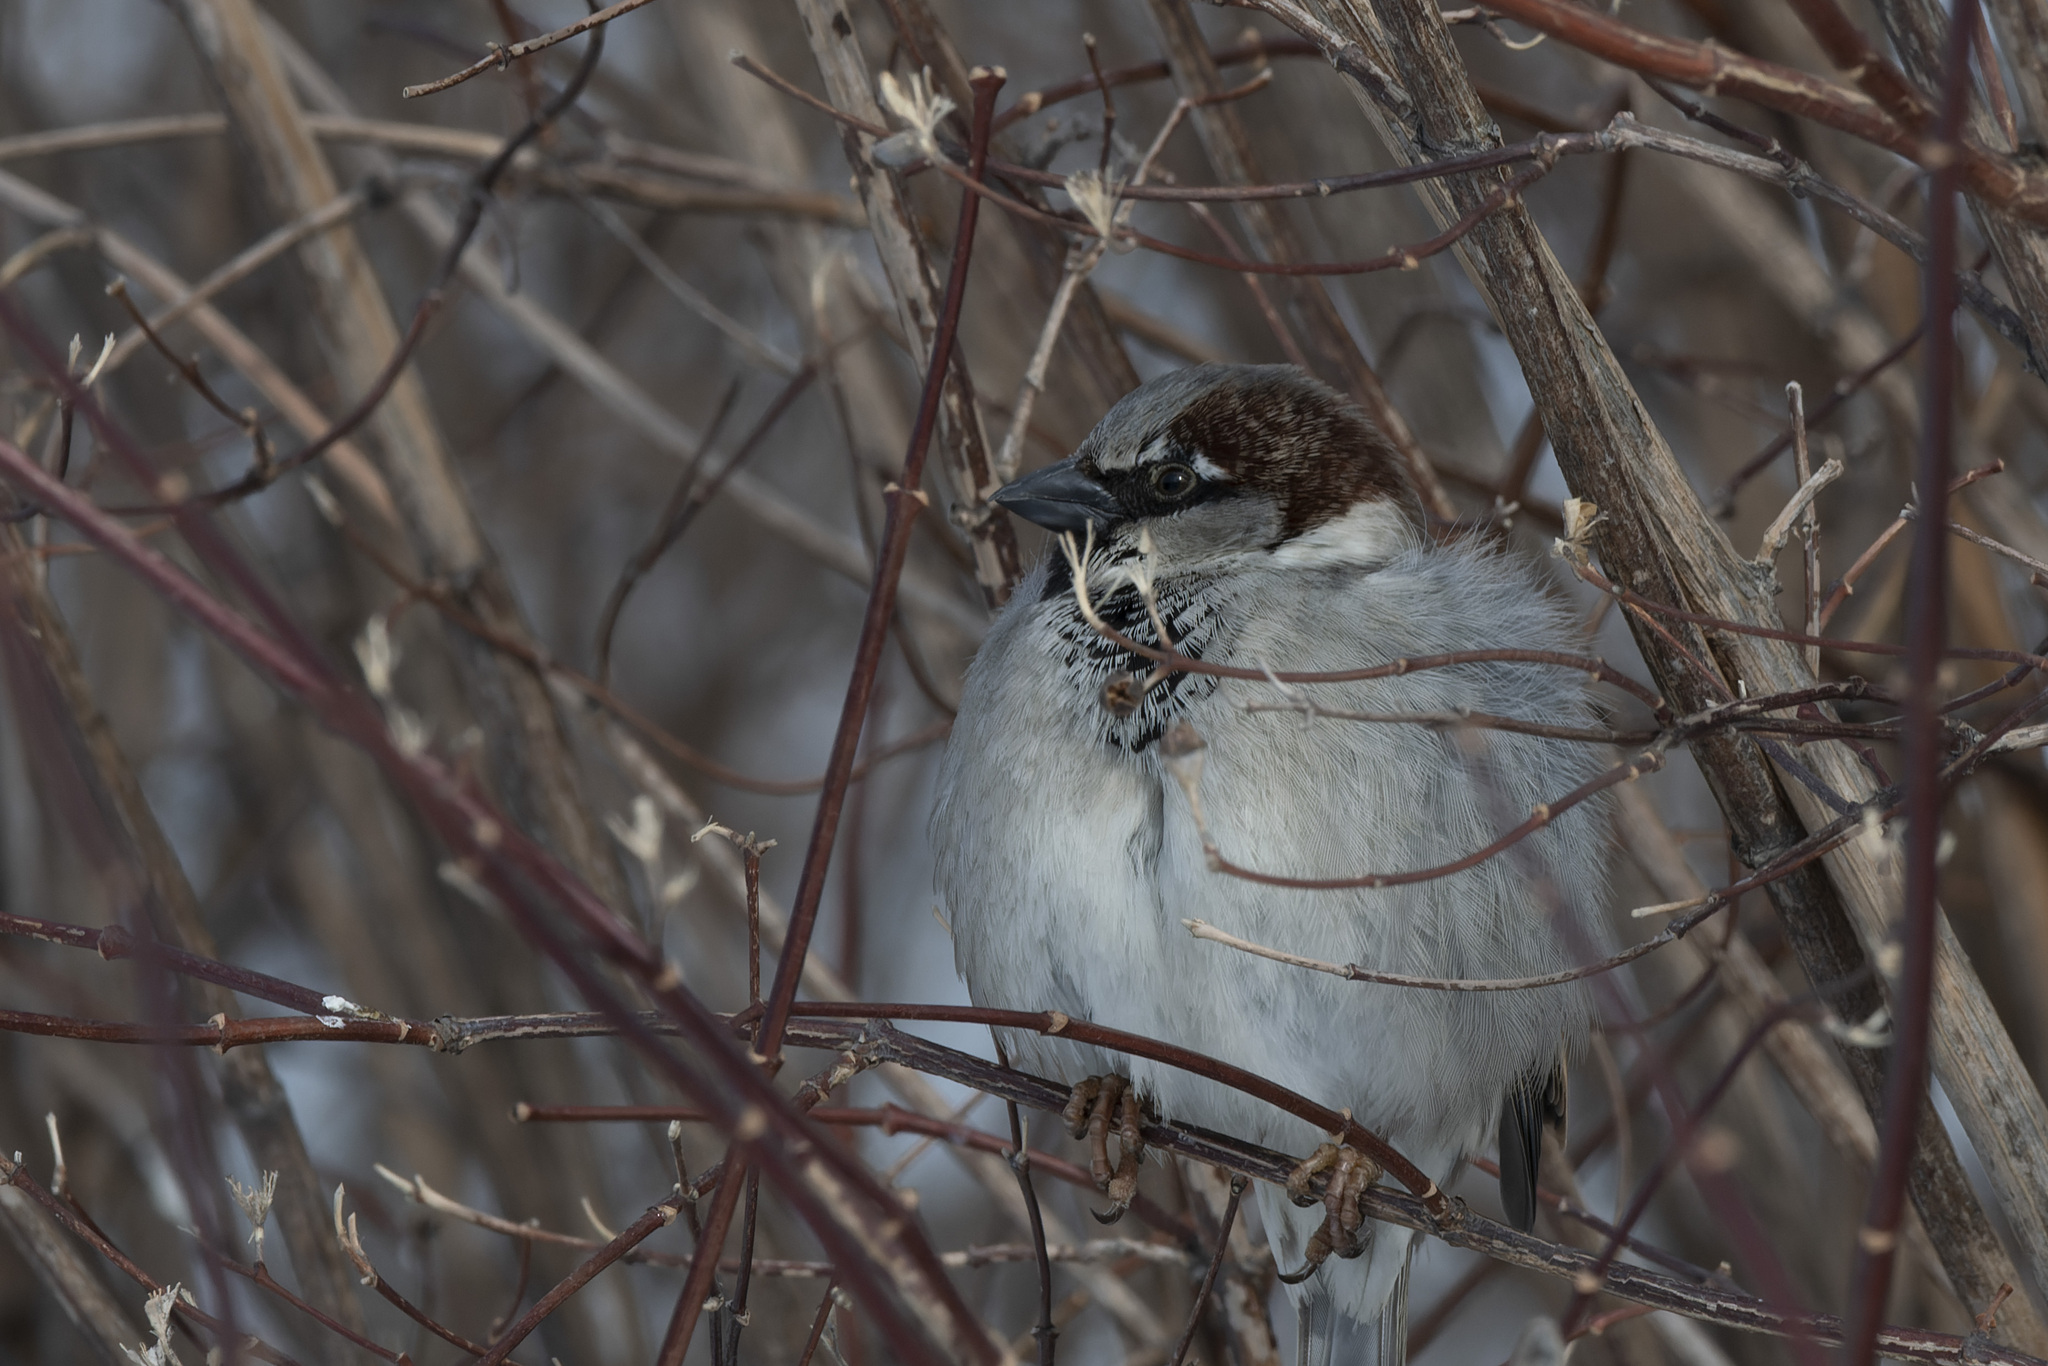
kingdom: Animalia
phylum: Chordata
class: Aves
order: Passeriformes
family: Passeridae
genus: Passer
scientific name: Passer domesticus
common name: House sparrow
